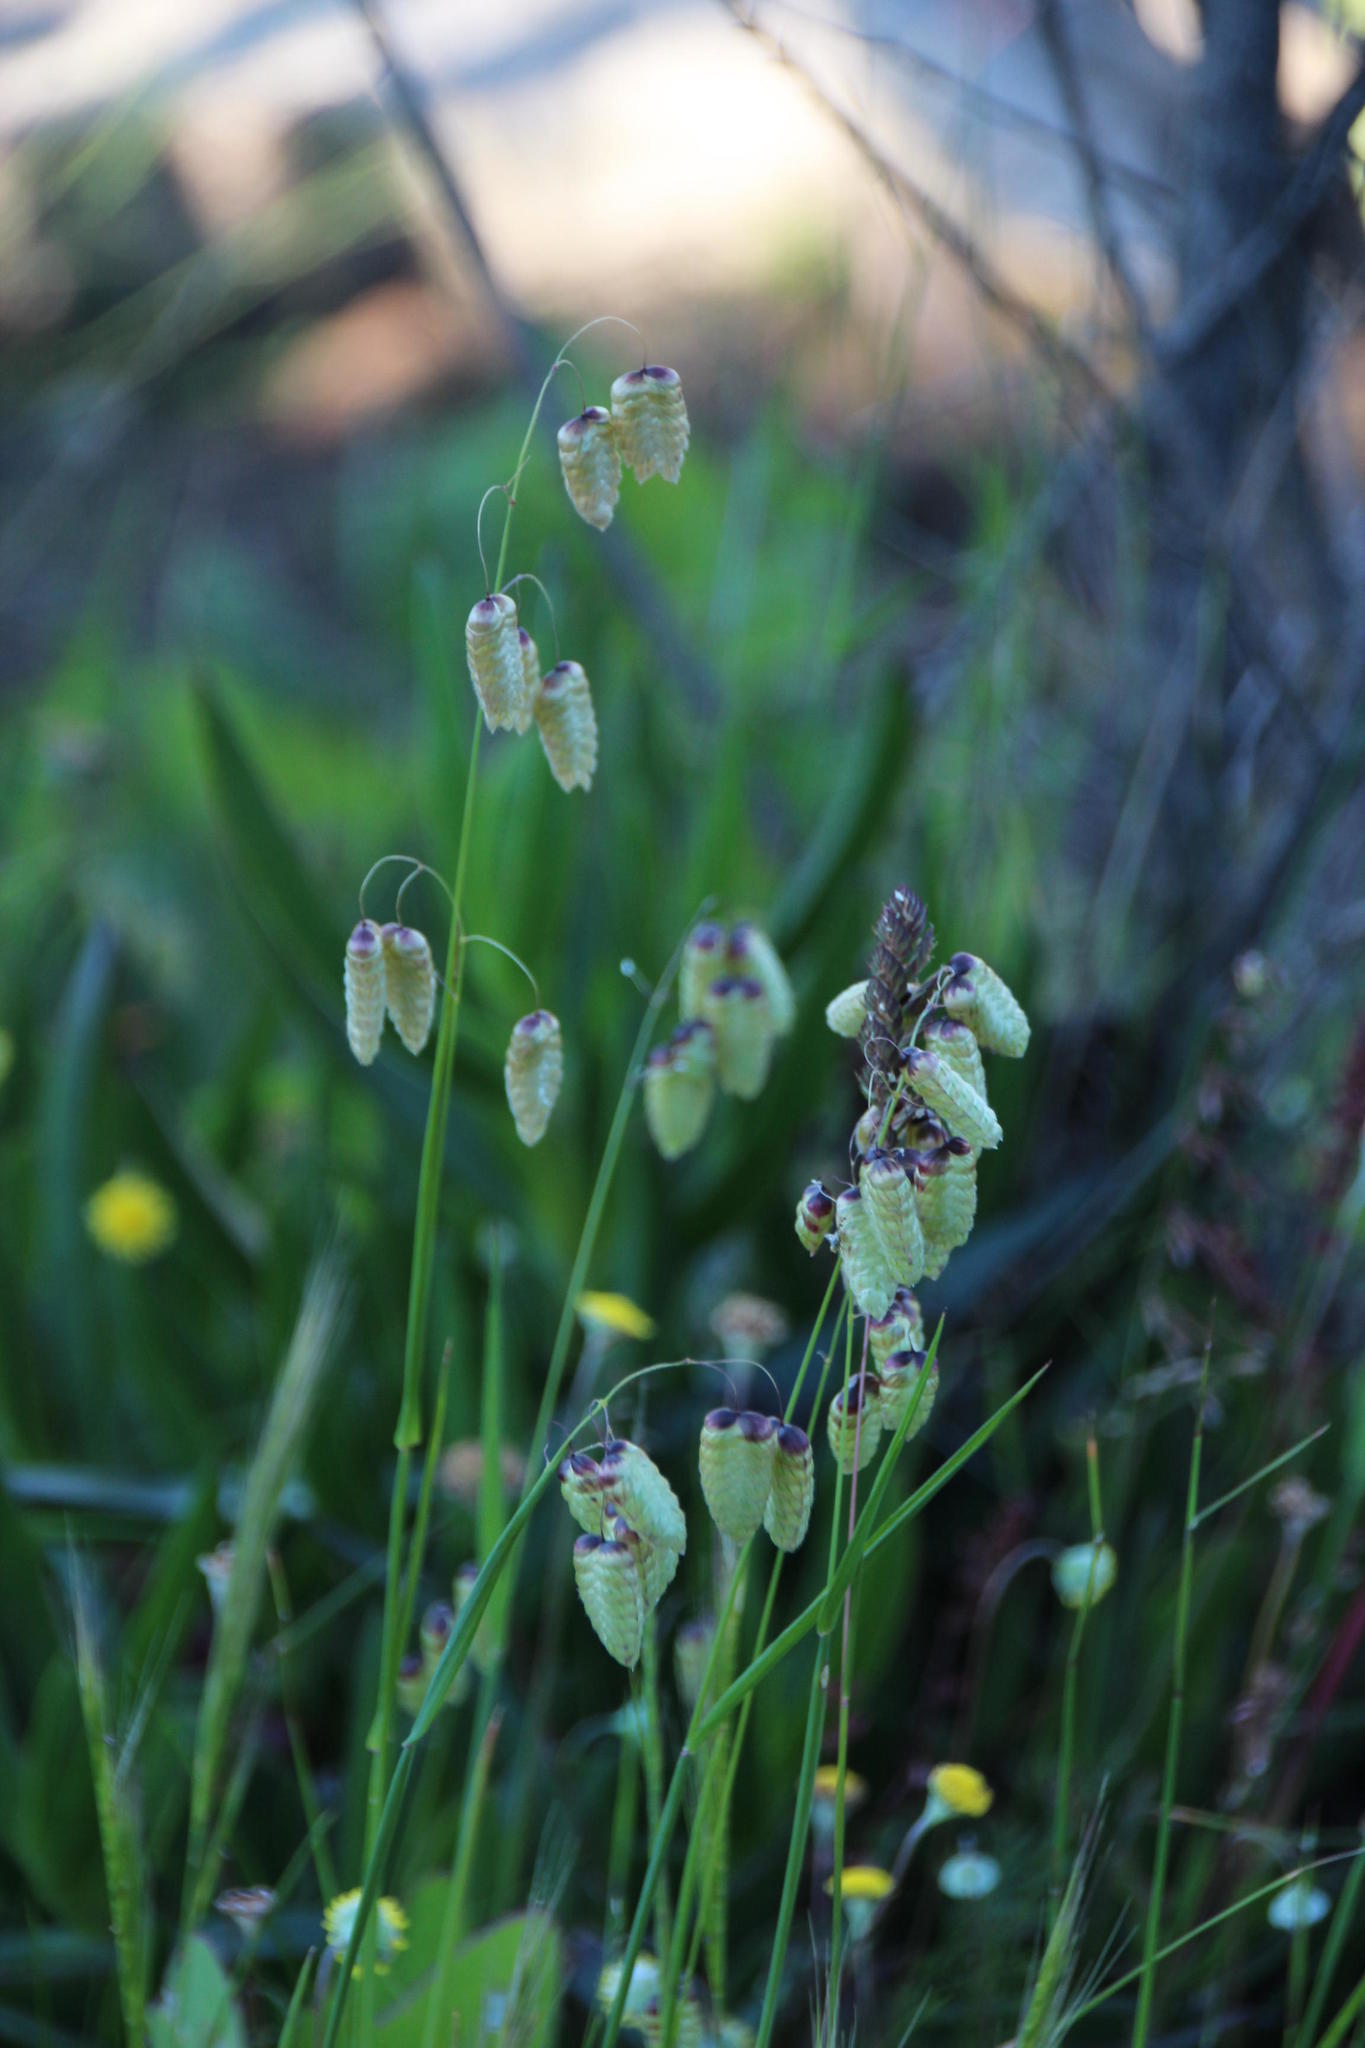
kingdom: Plantae
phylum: Tracheophyta
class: Liliopsida
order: Poales
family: Poaceae
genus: Briza
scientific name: Briza maxima
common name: Big quakinggrass
